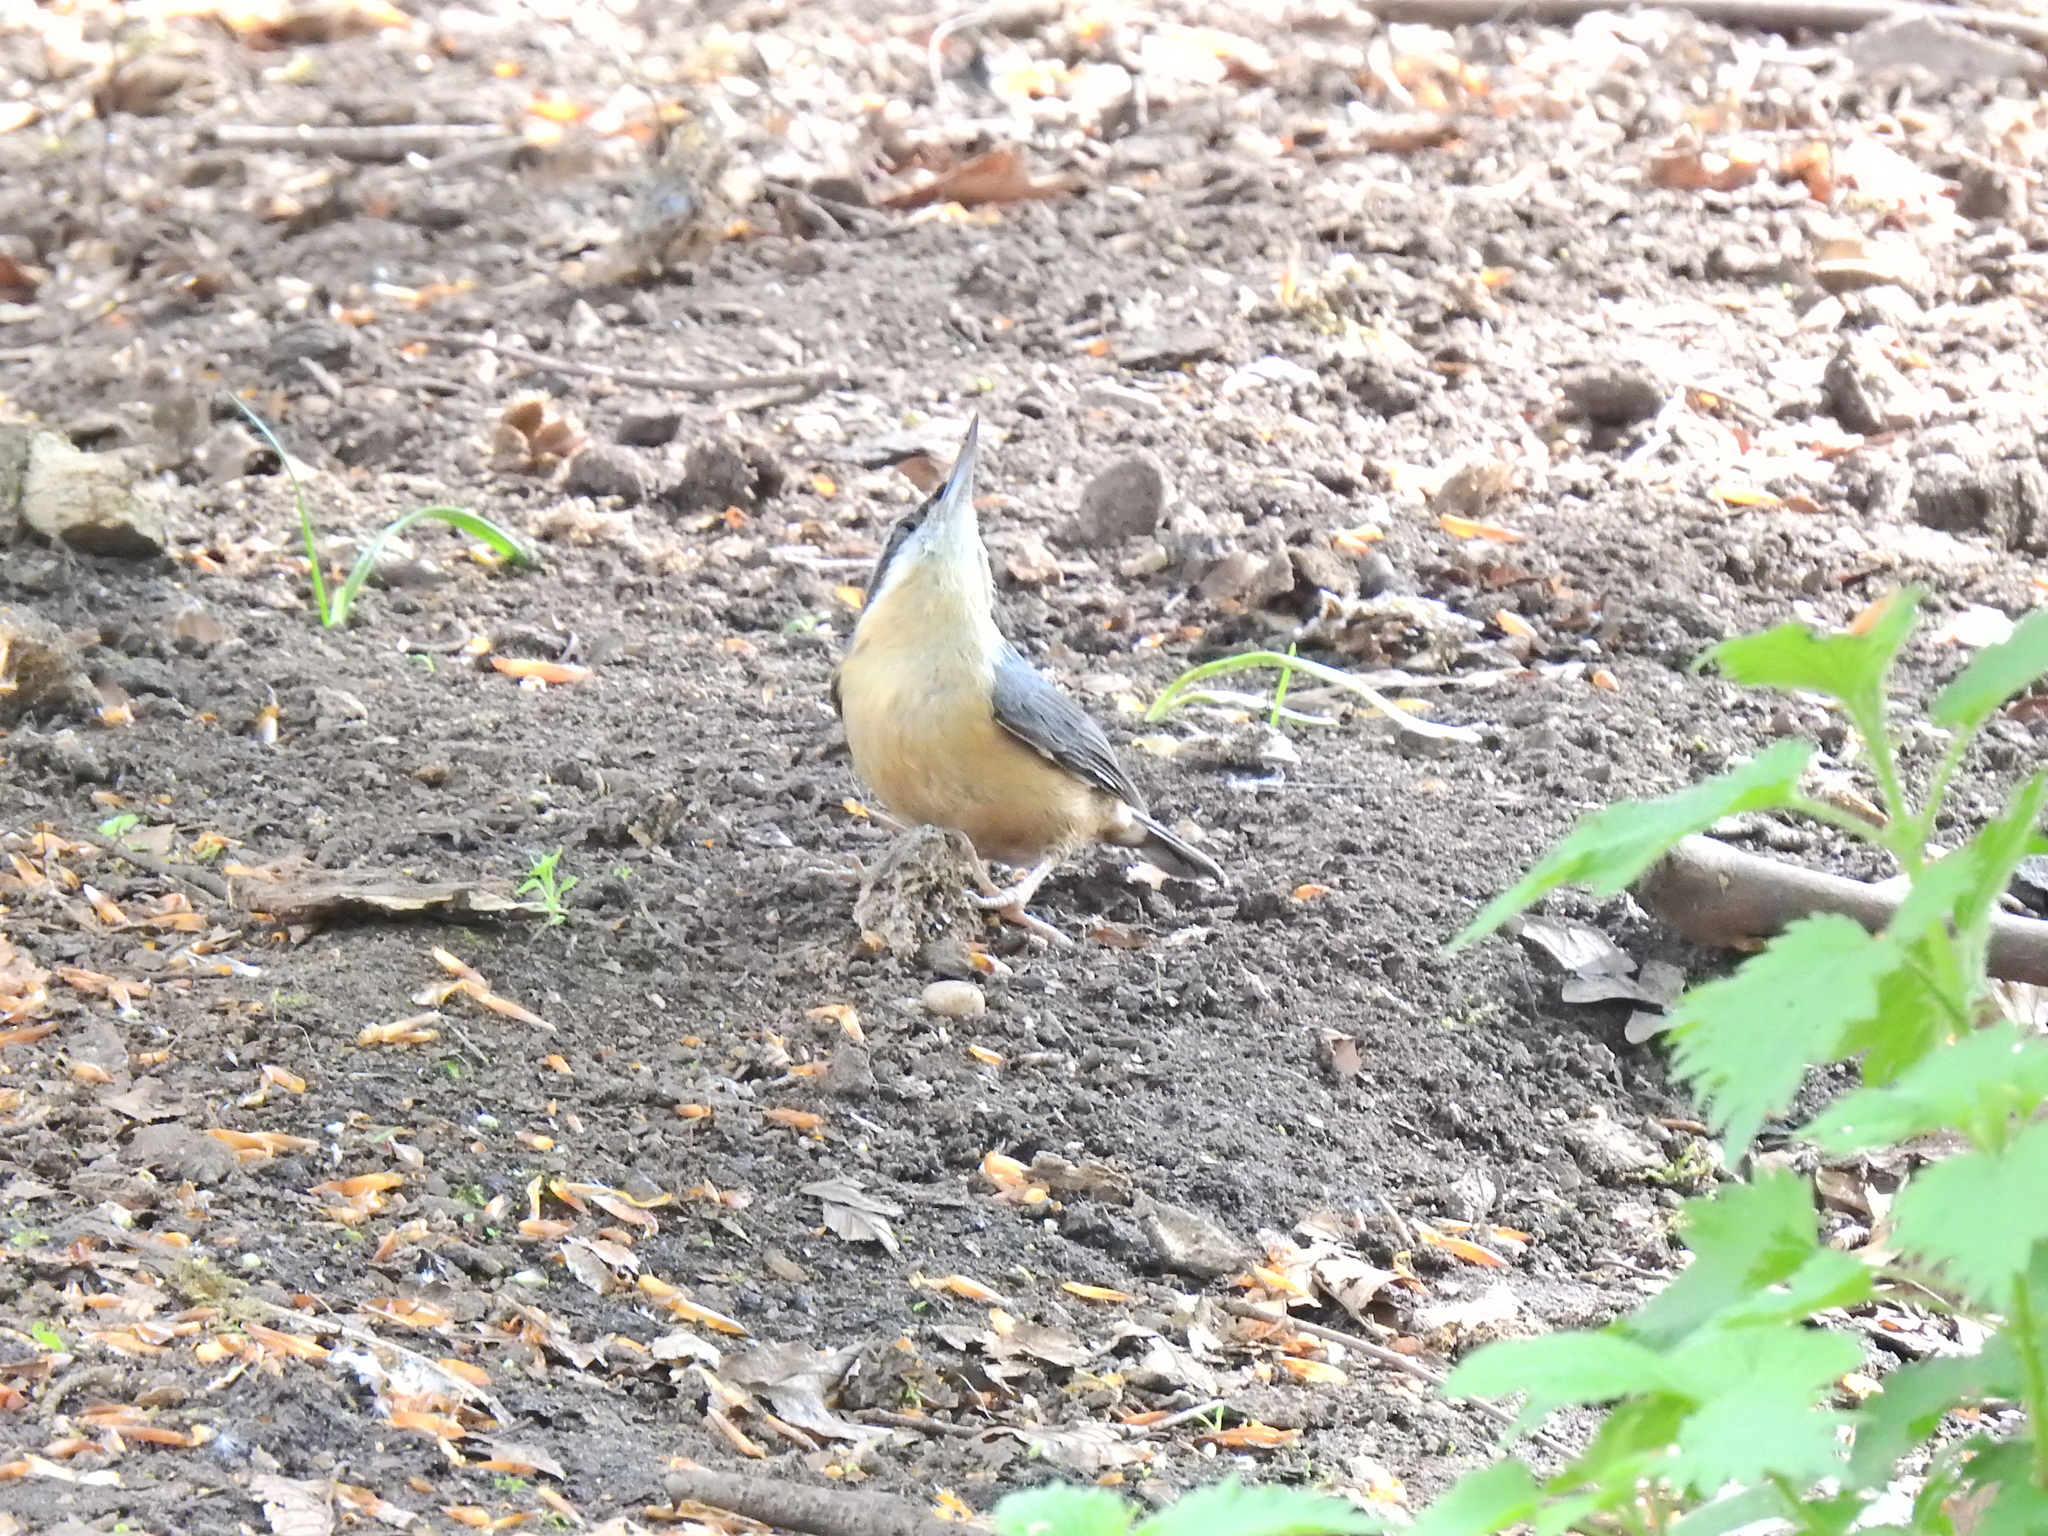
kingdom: Animalia
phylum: Chordata
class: Aves
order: Passeriformes
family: Sittidae
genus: Sitta
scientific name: Sitta europaea
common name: Eurasian nuthatch
